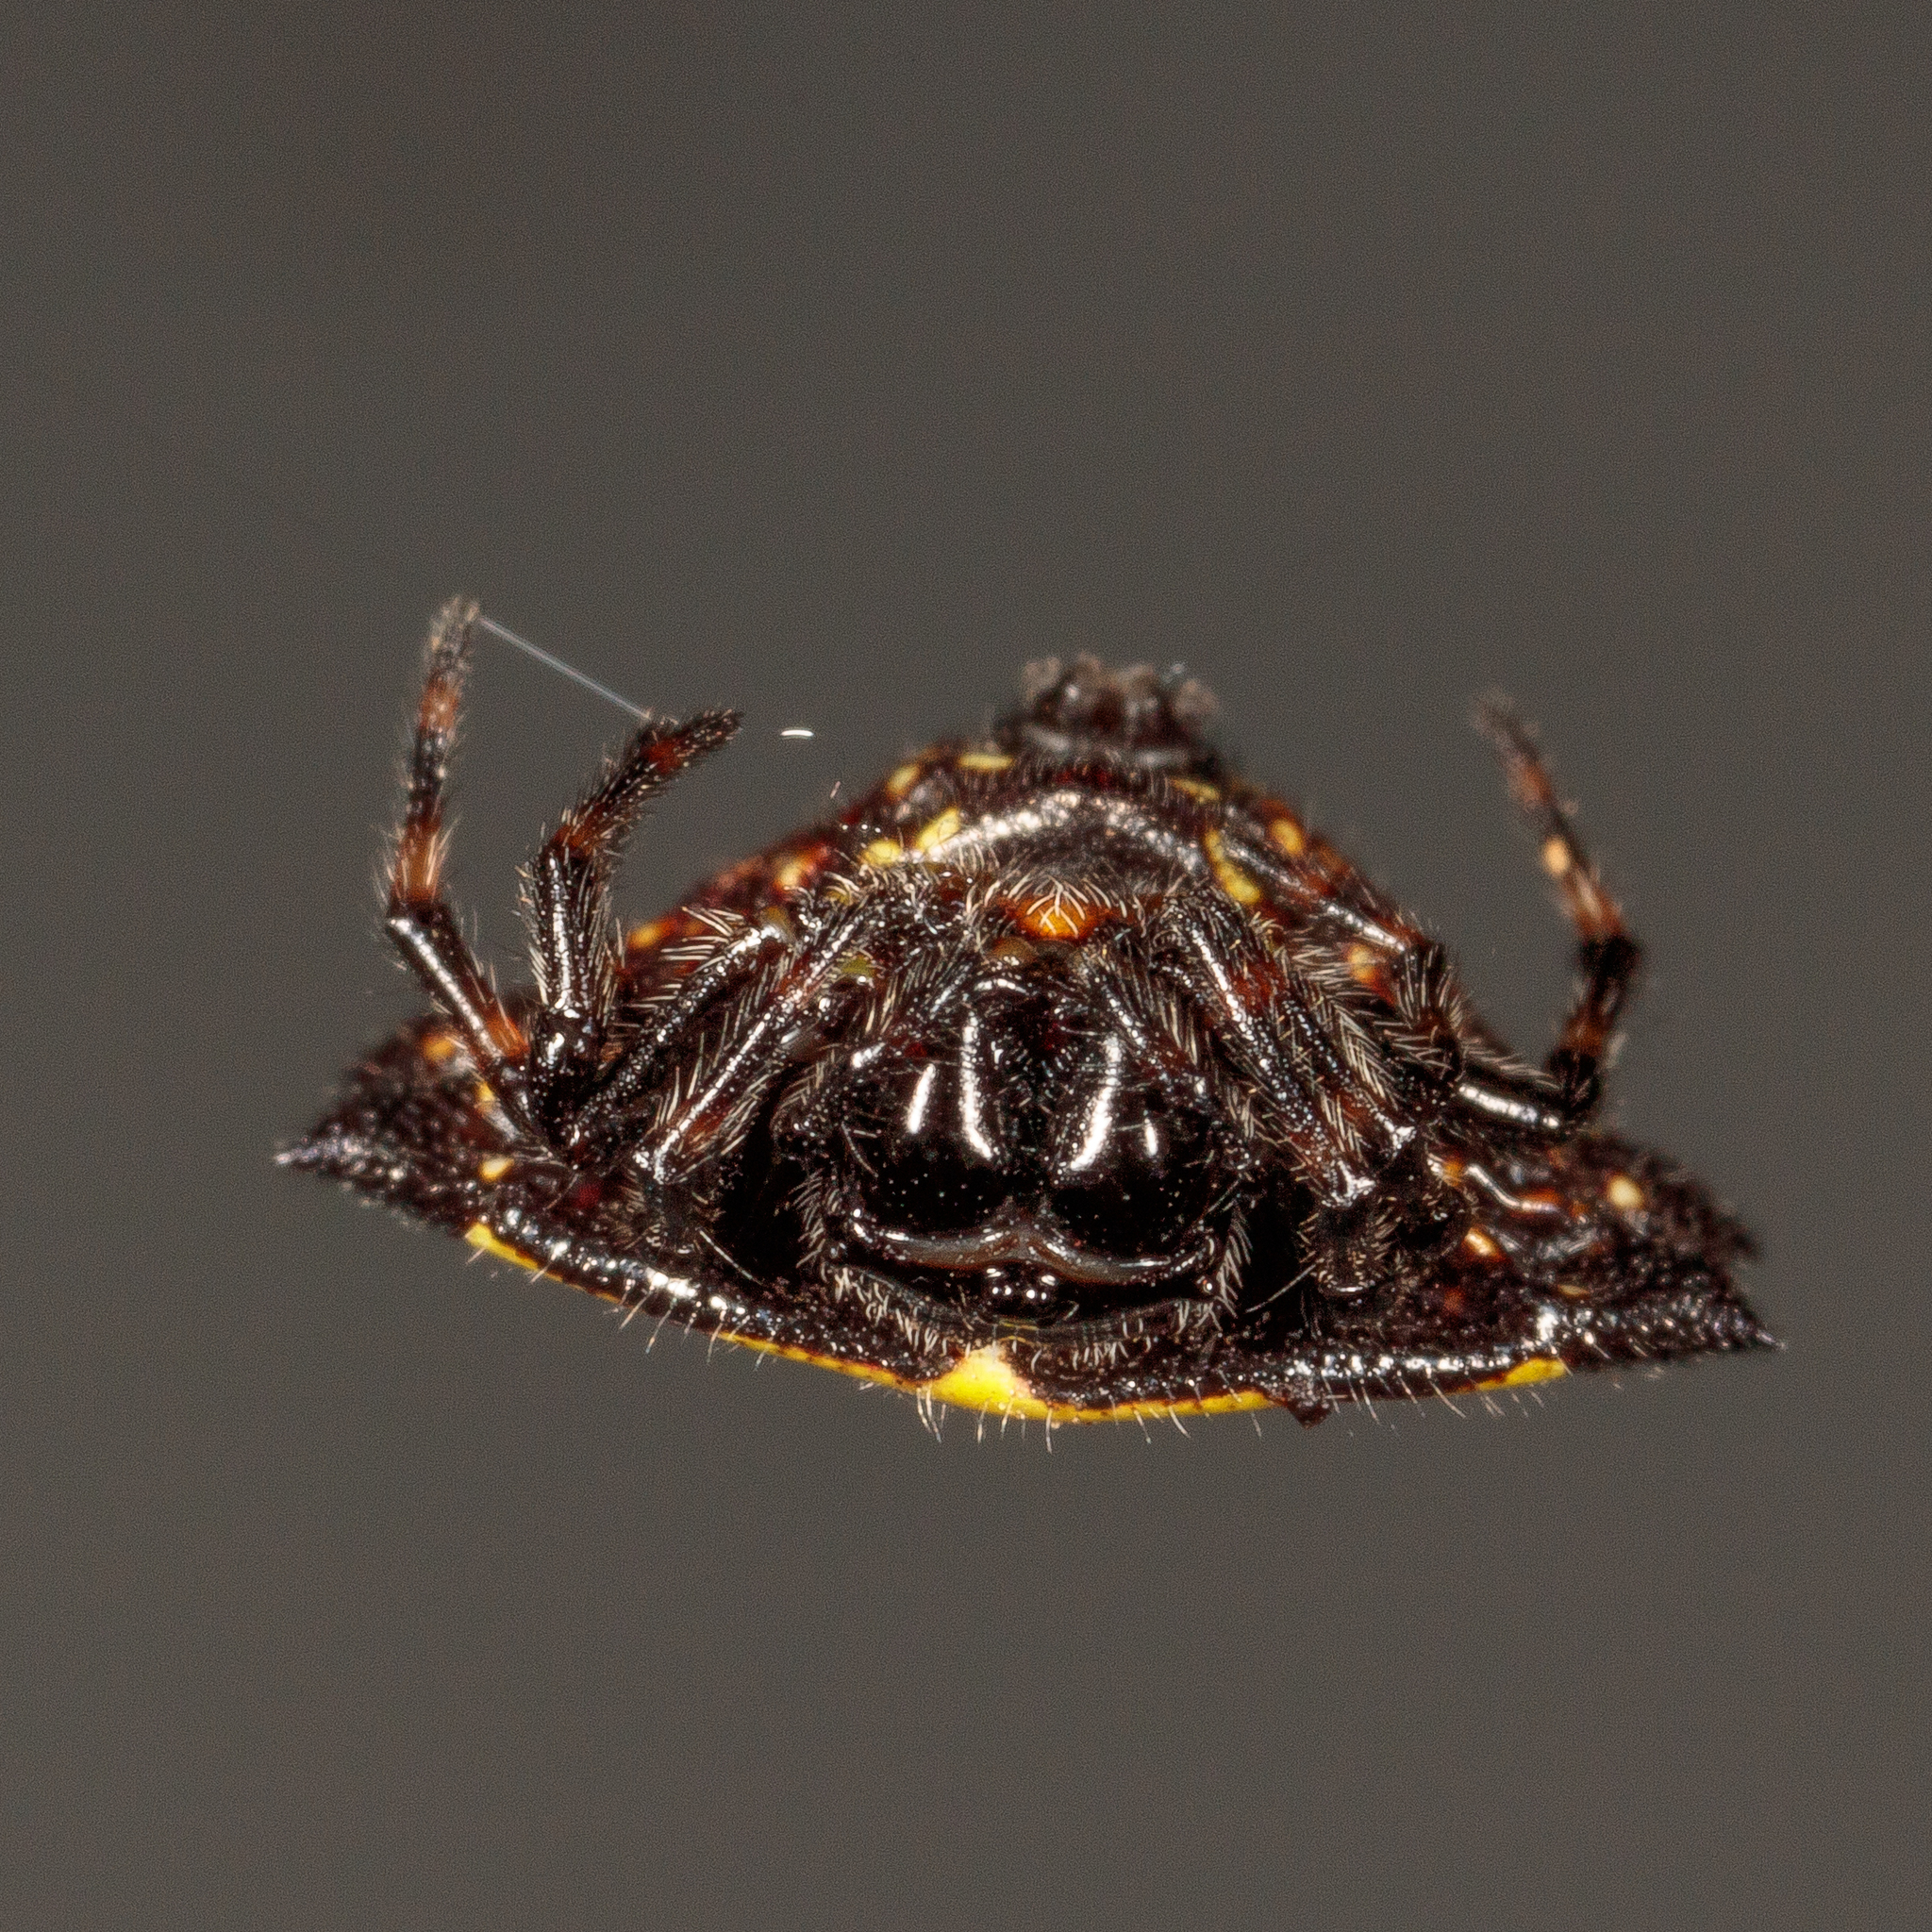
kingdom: Animalia
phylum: Arthropoda
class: Arachnida
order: Araneae
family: Araneidae
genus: Gasteracantha
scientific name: Gasteracantha cancriformis
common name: Orb weavers
